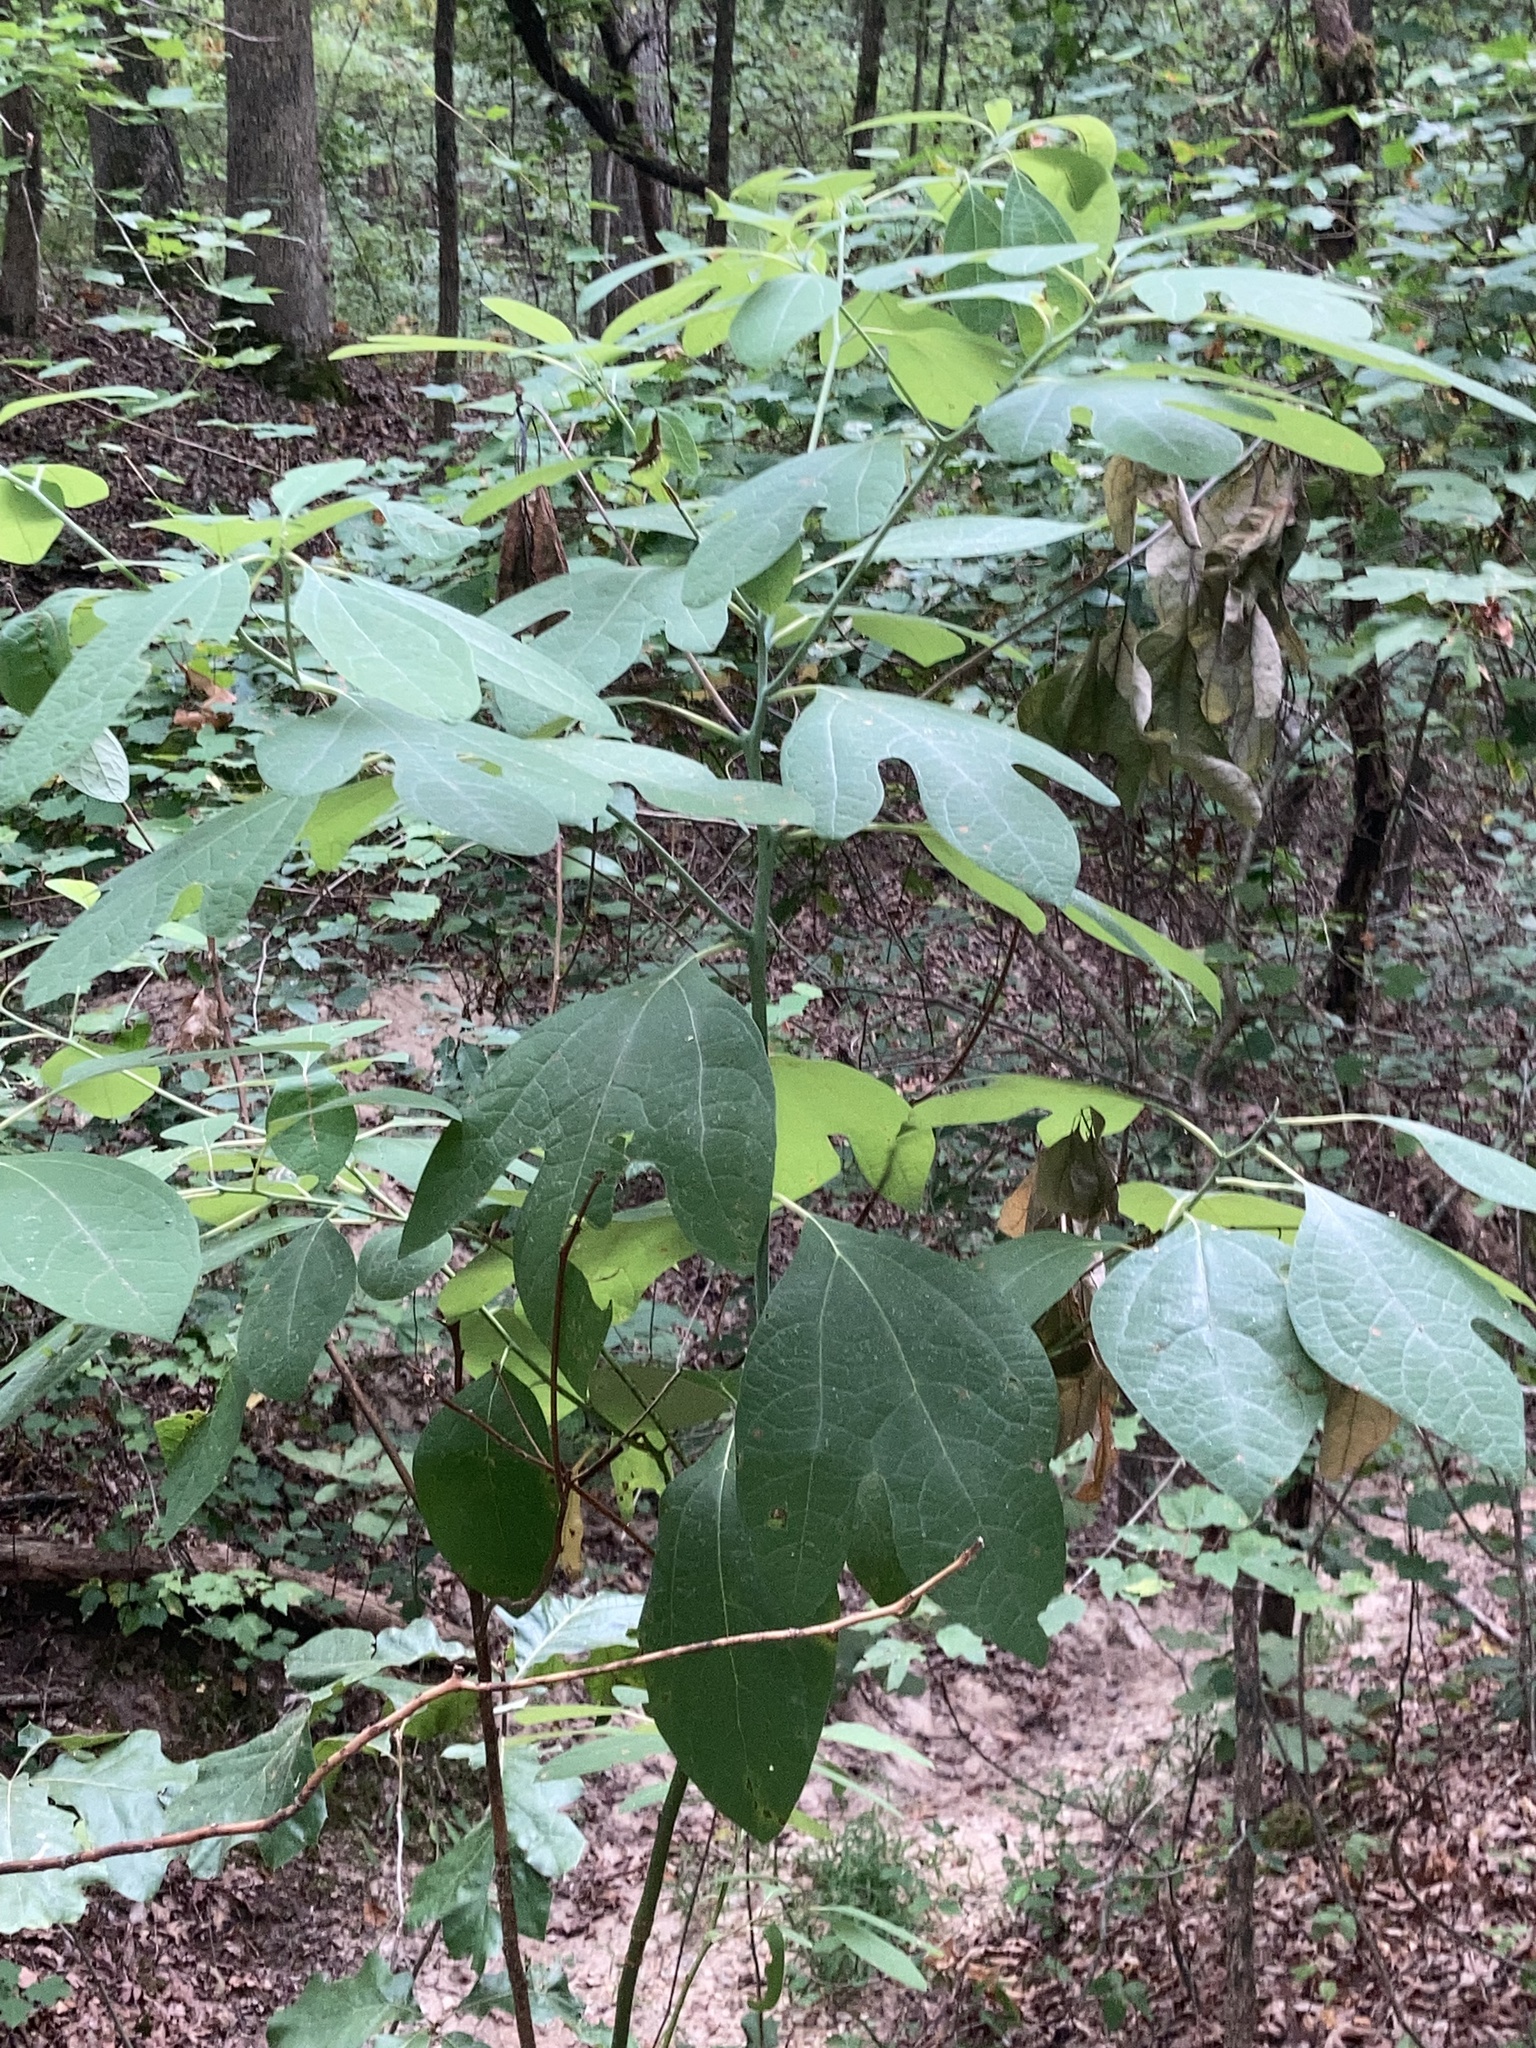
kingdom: Plantae
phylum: Tracheophyta
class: Magnoliopsida
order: Laurales
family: Lauraceae
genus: Sassafras
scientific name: Sassafras albidum
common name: Sassafras
